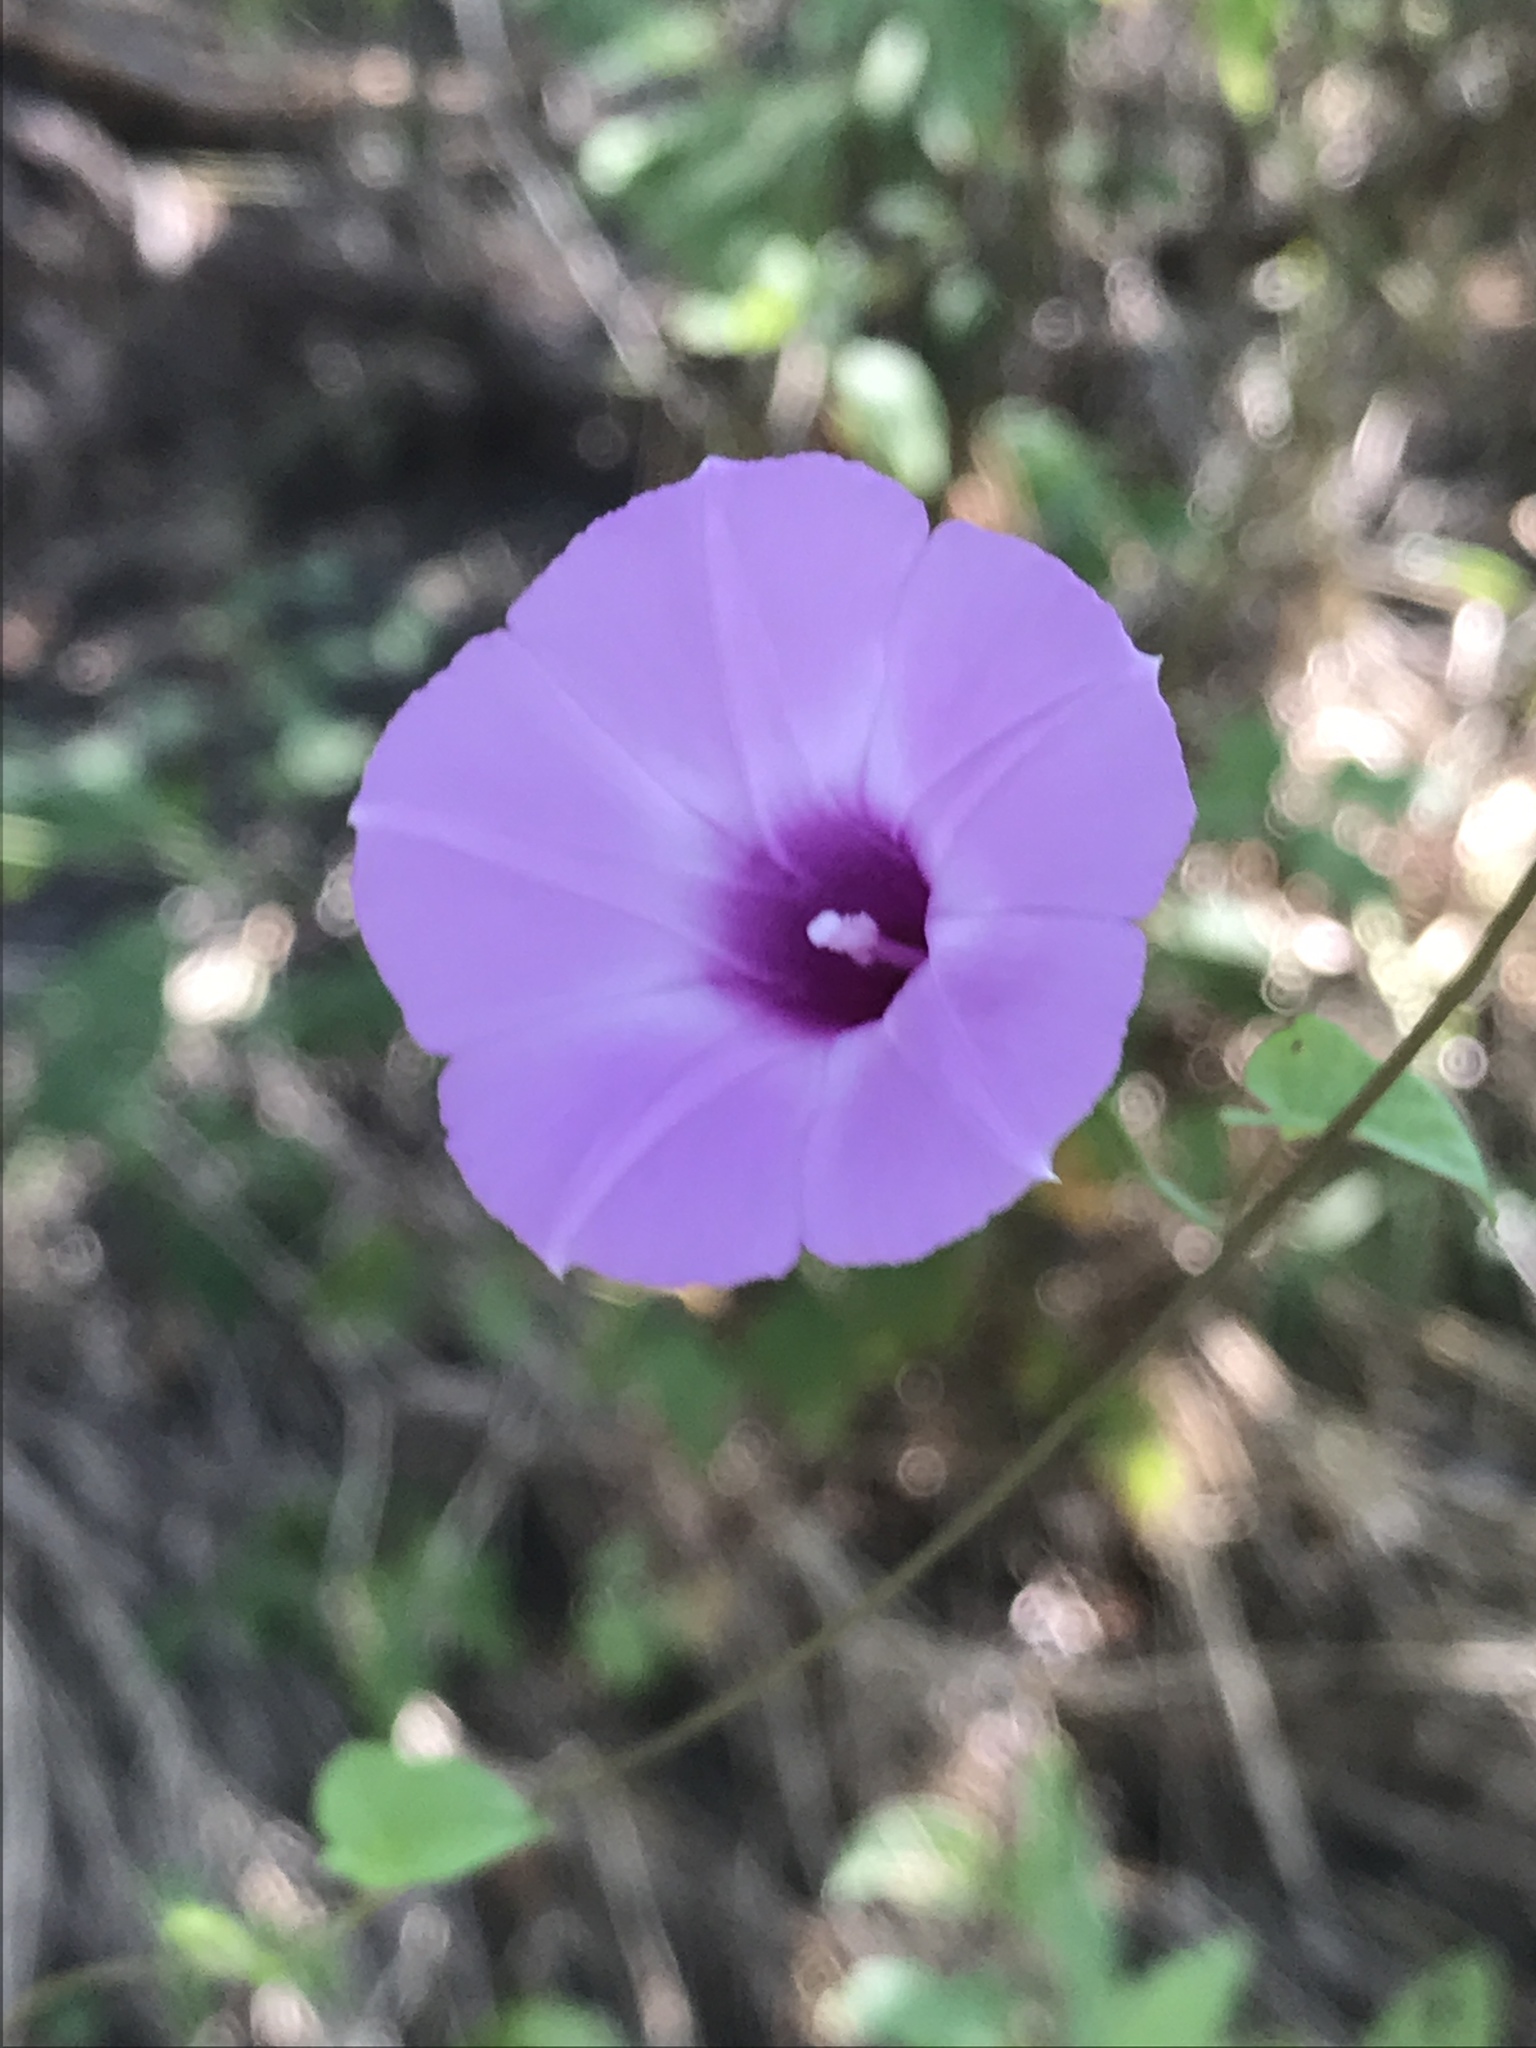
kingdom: Plantae
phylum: Tracheophyta
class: Magnoliopsida
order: Solanales
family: Convolvulaceae
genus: Ipomoea
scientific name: Ipomoea cordatotriloba
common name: Cotton morning glory
